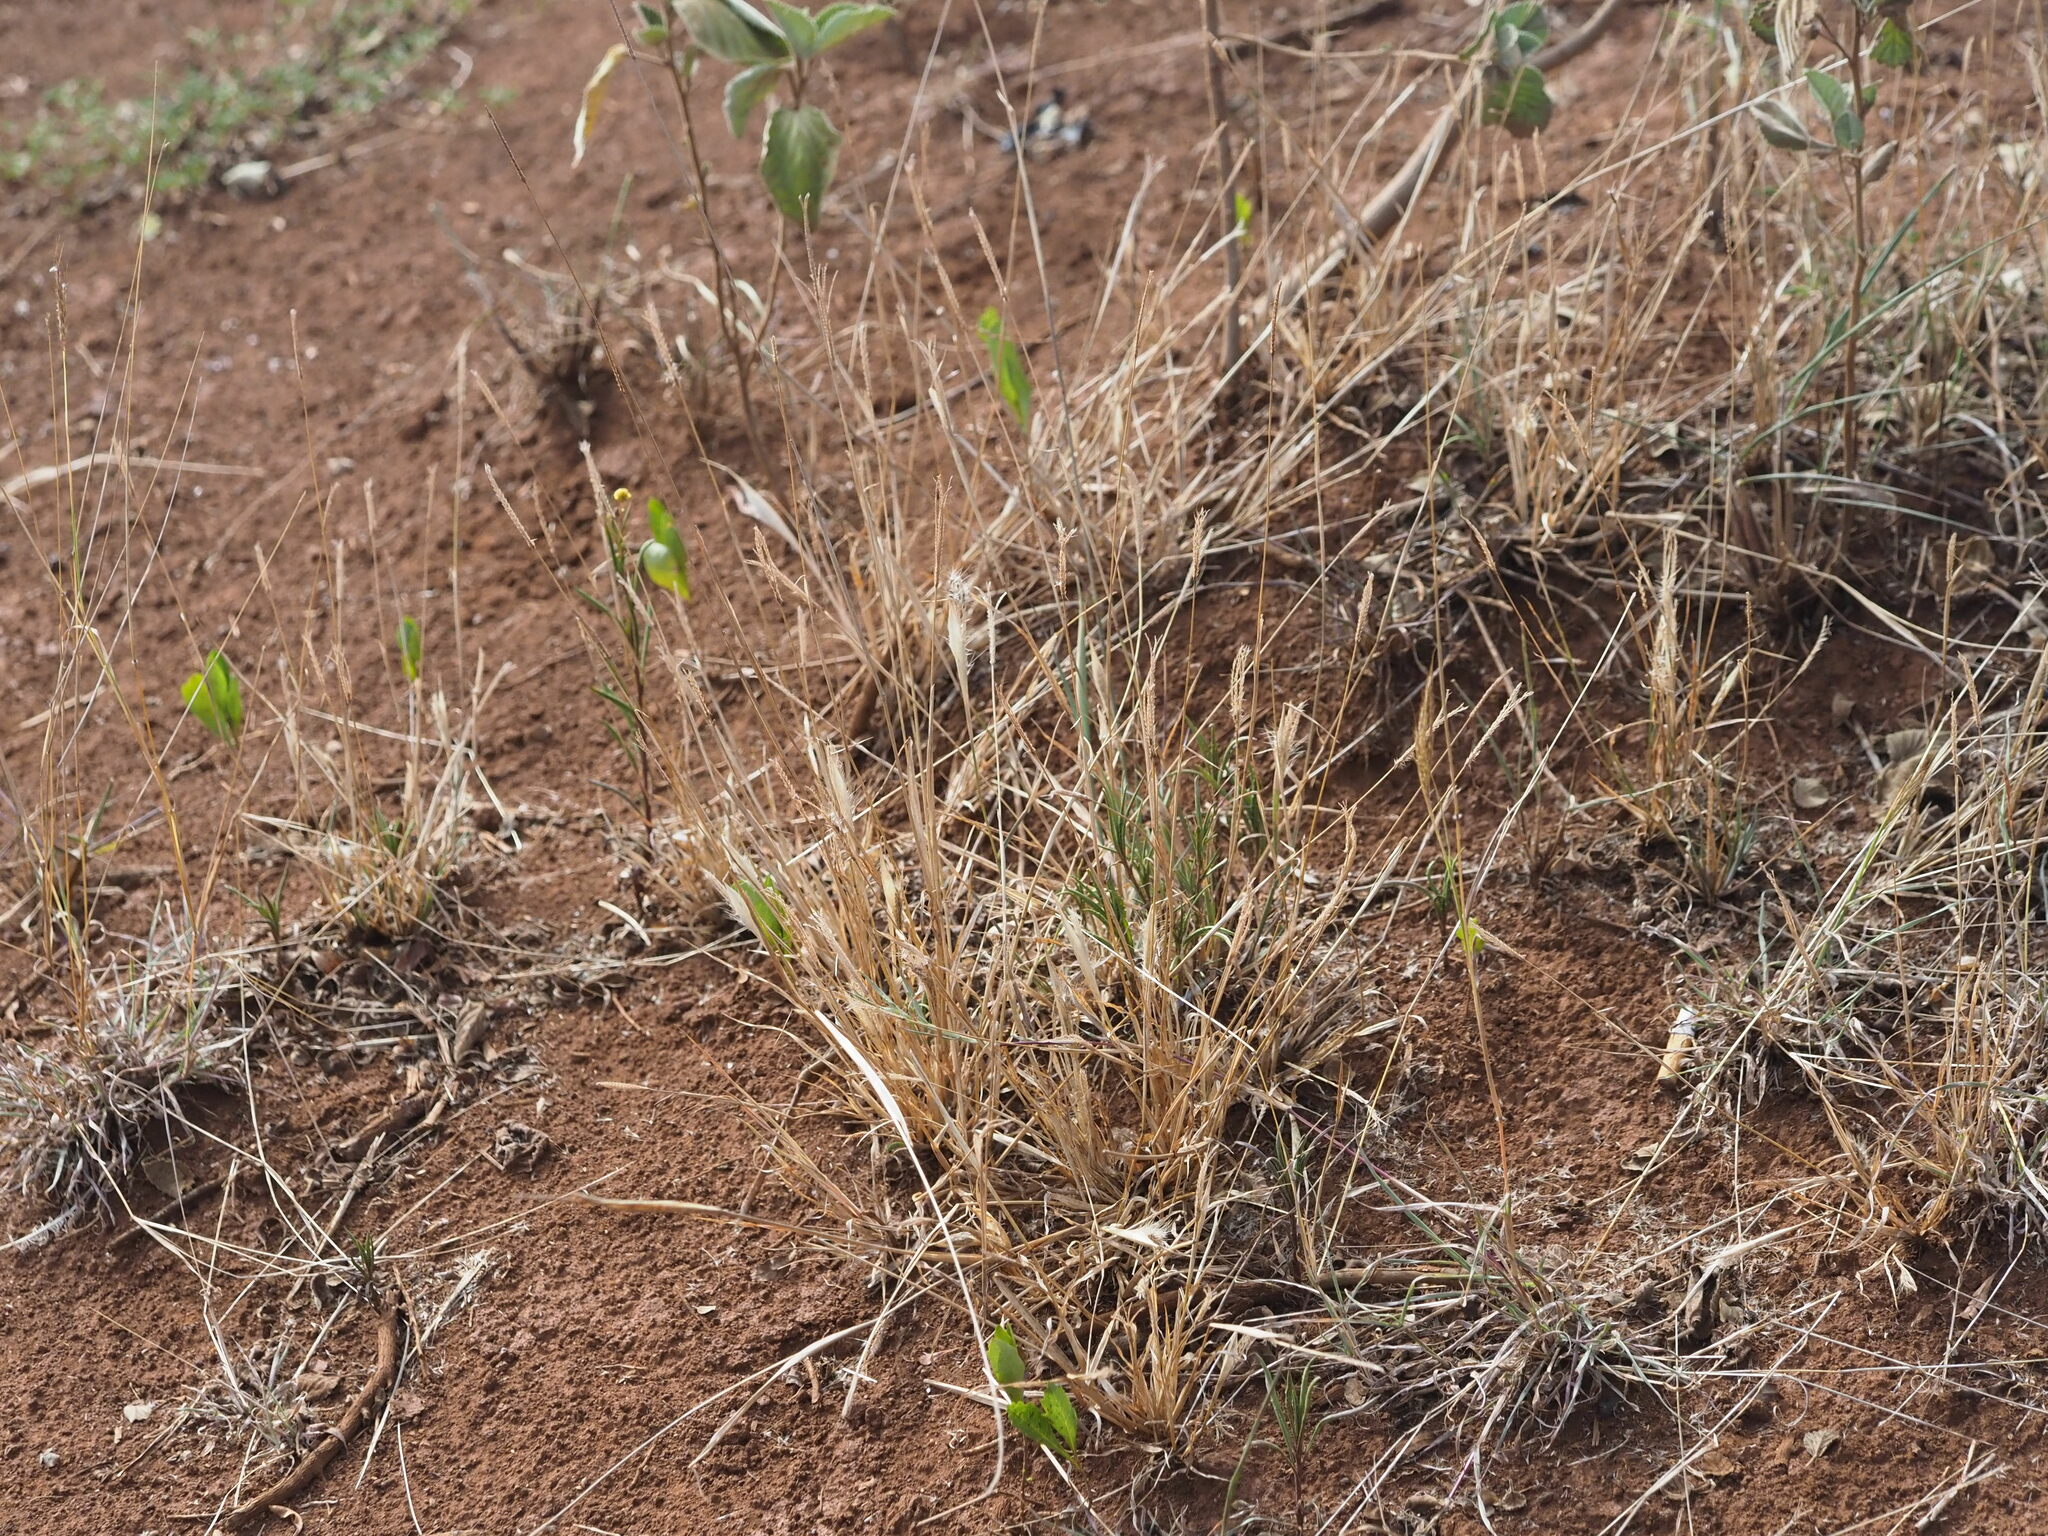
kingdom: Plantae
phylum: Tracheophyta
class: Liliopsida
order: Poales
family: Poaceae
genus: Chloris
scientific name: Chloris virgata
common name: Feathery rhodes-grass
